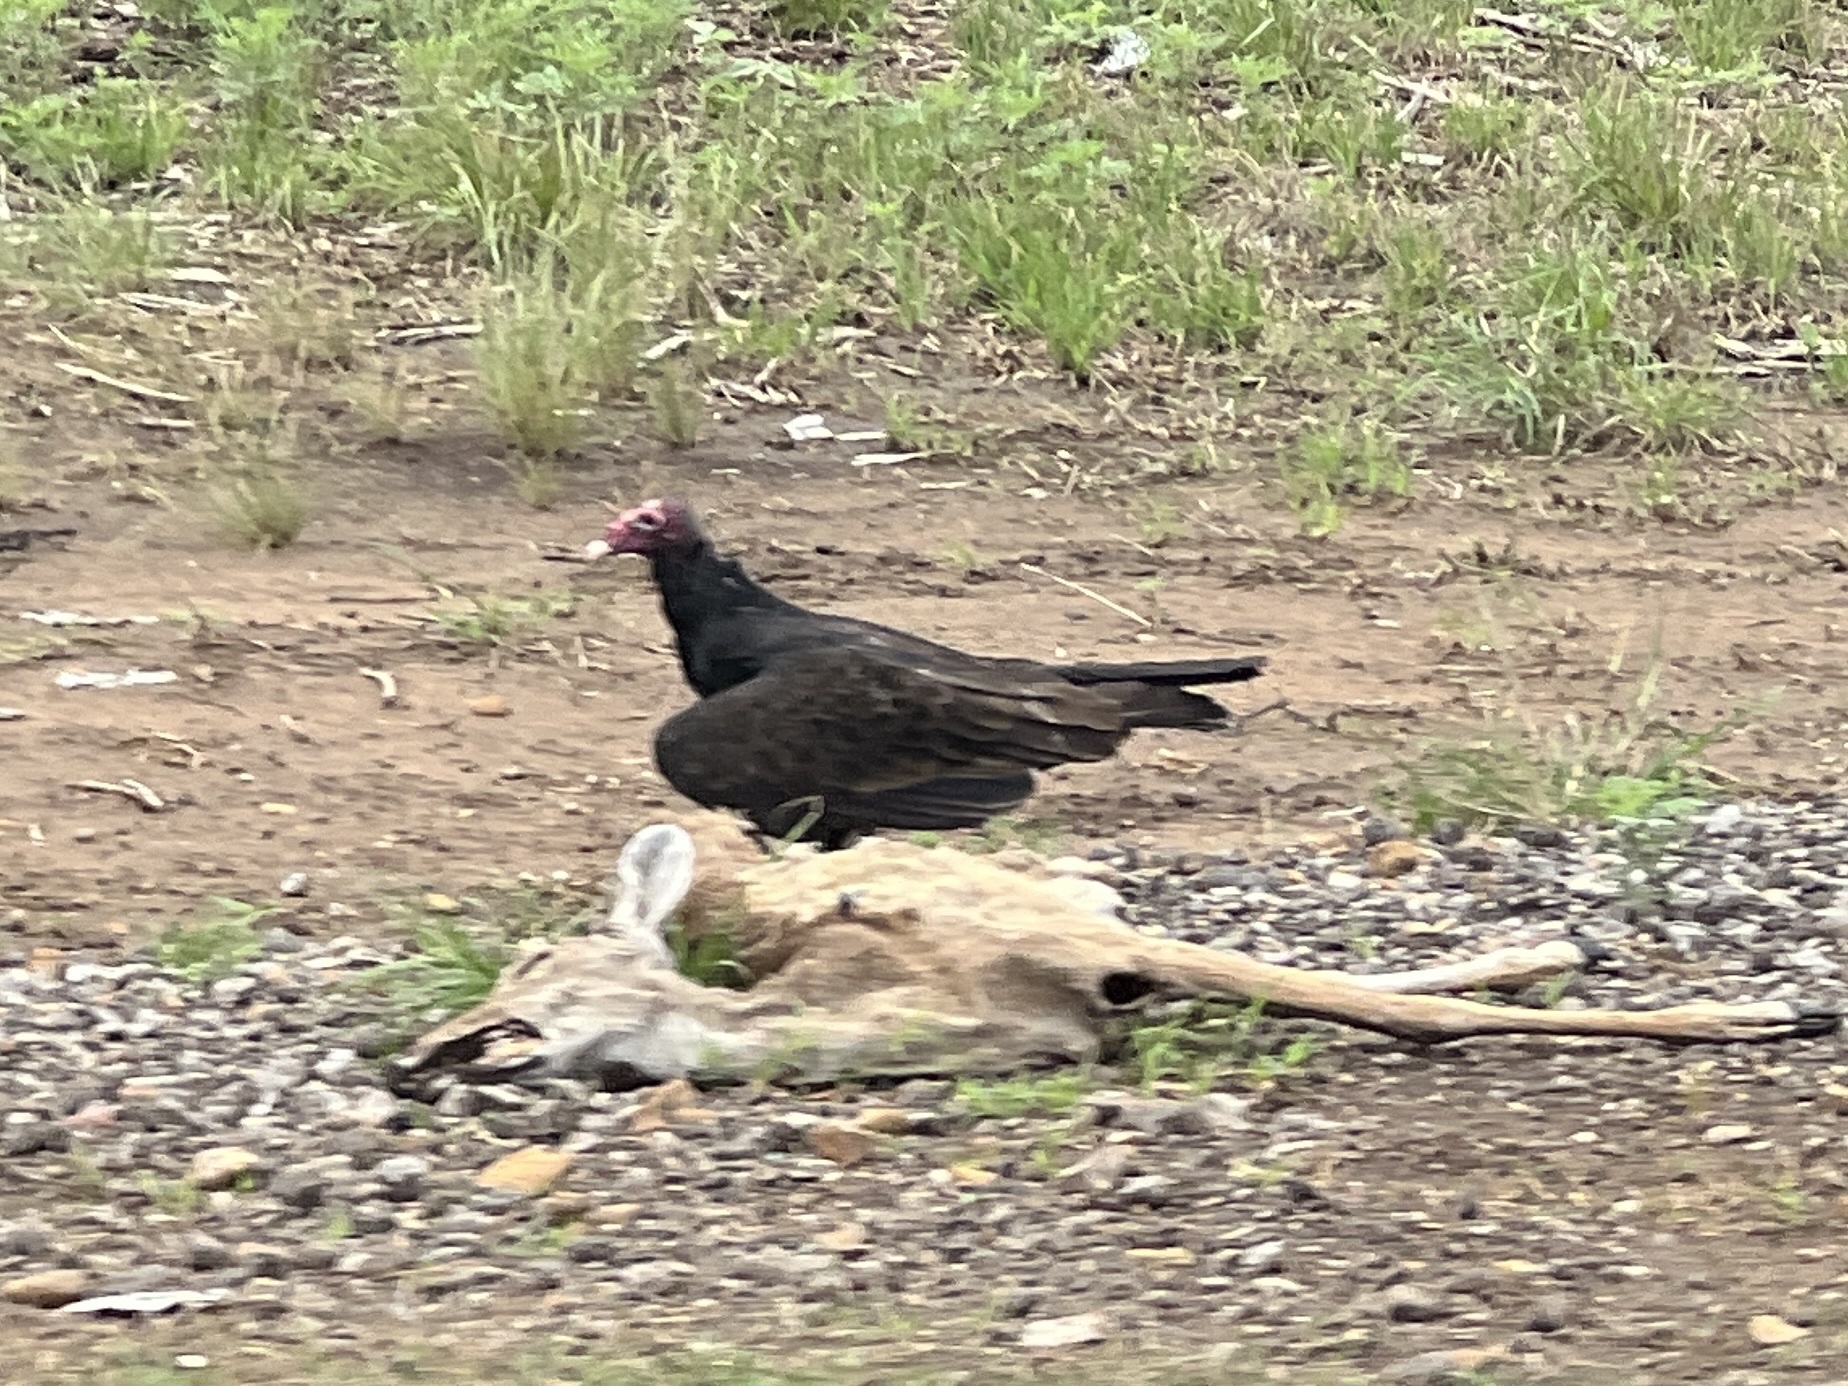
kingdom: Animalia
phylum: Chordata
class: Aves
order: Accipitriformes
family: Cathartidae
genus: Cathartes
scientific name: Cathartes aura
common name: Turkey vulture
